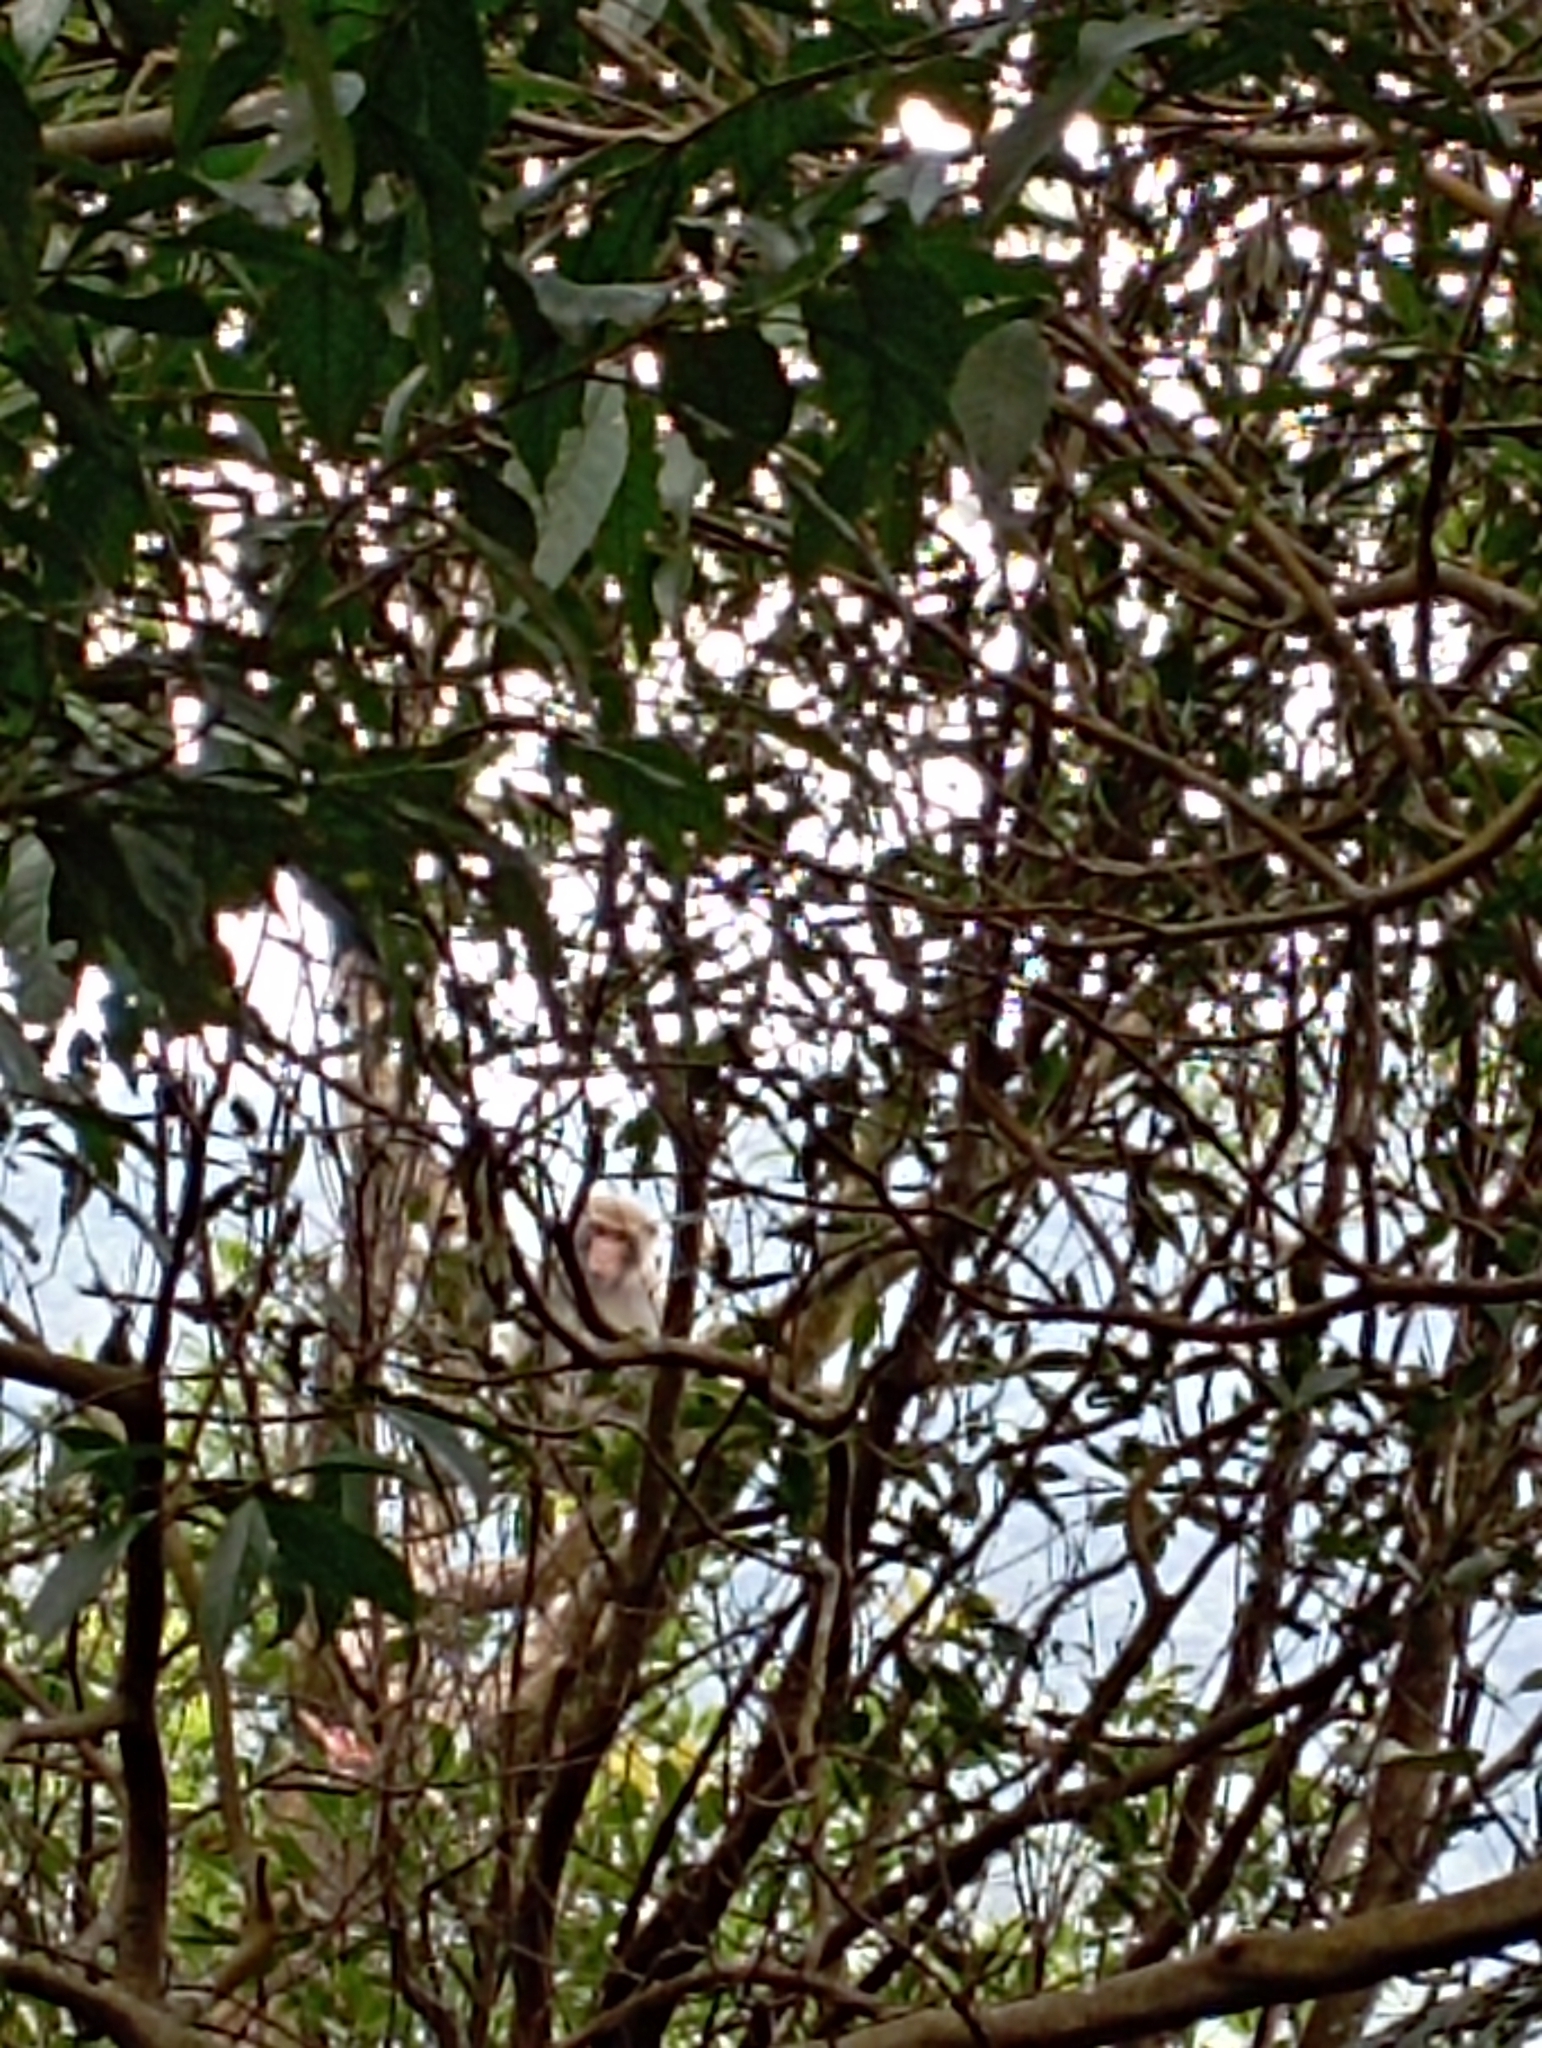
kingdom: Animalia
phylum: Chordata
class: Mammalia
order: Primates
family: Cercopithecidae
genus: Macaca
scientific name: Macaca cyclopis
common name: Formosan rock macaque
